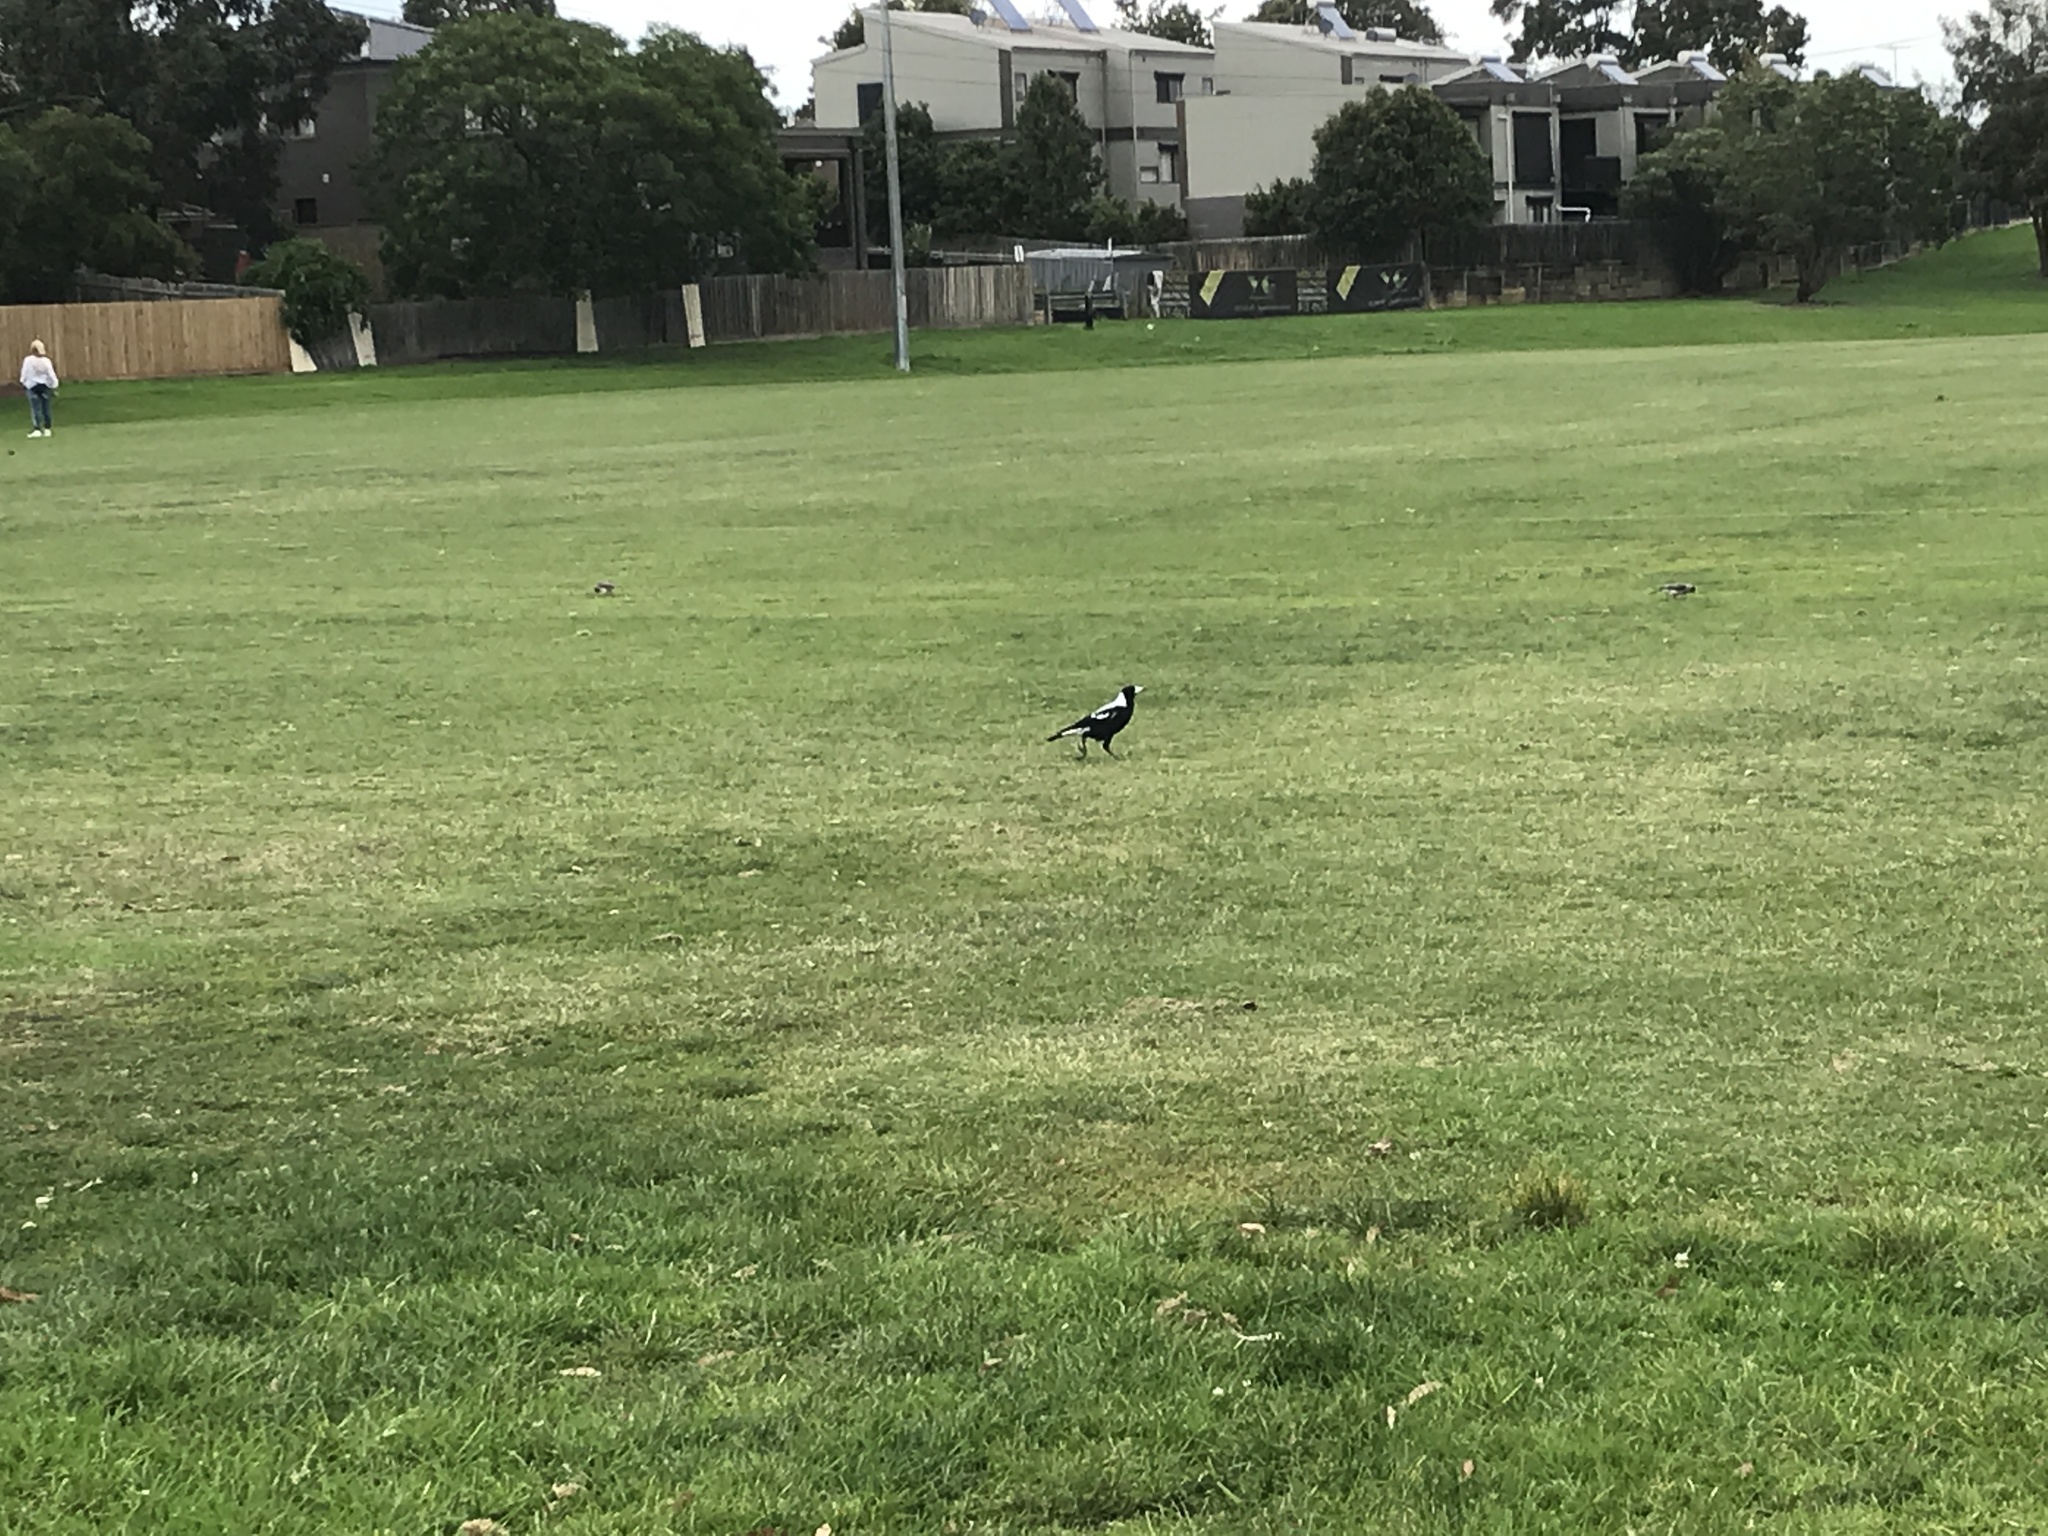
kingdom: Animalia
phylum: Chordata
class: Aves
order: Passeriformes
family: Cracticidae
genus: Gymnorhina
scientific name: Gymnorhina tibicen
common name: Australian magpie
